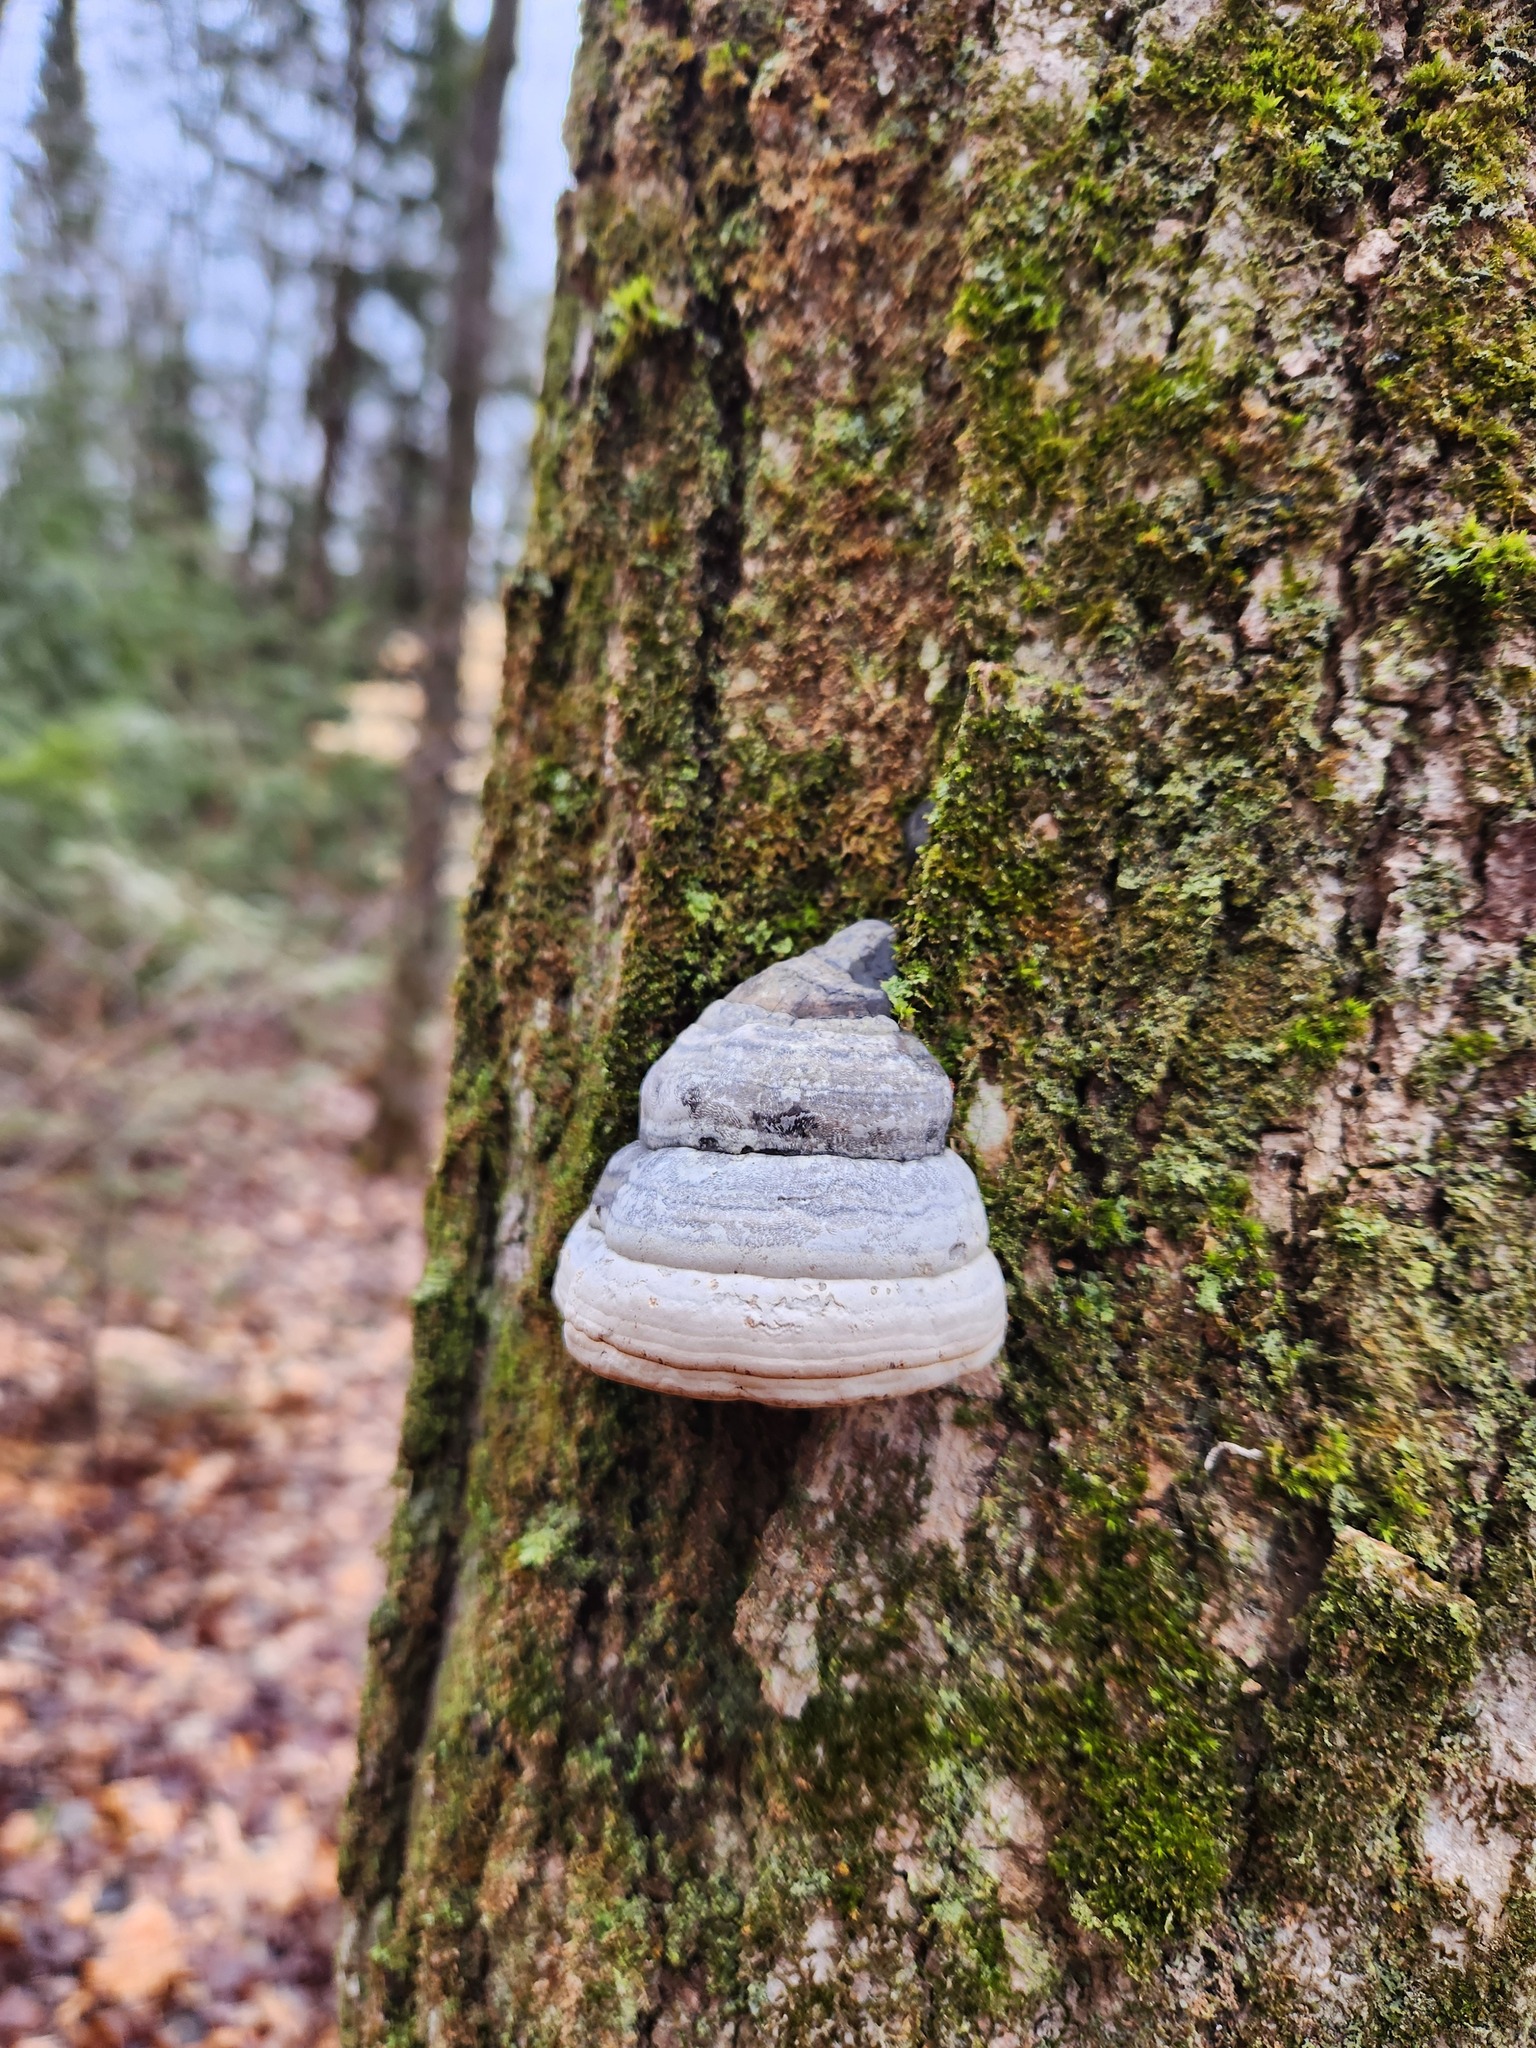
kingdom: Fungi
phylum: Basidiomycota
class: Agaricomycetes
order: Polyporales
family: Polyporaceae
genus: Fomes
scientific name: Fomes fomentarius
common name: Hoof fungus
